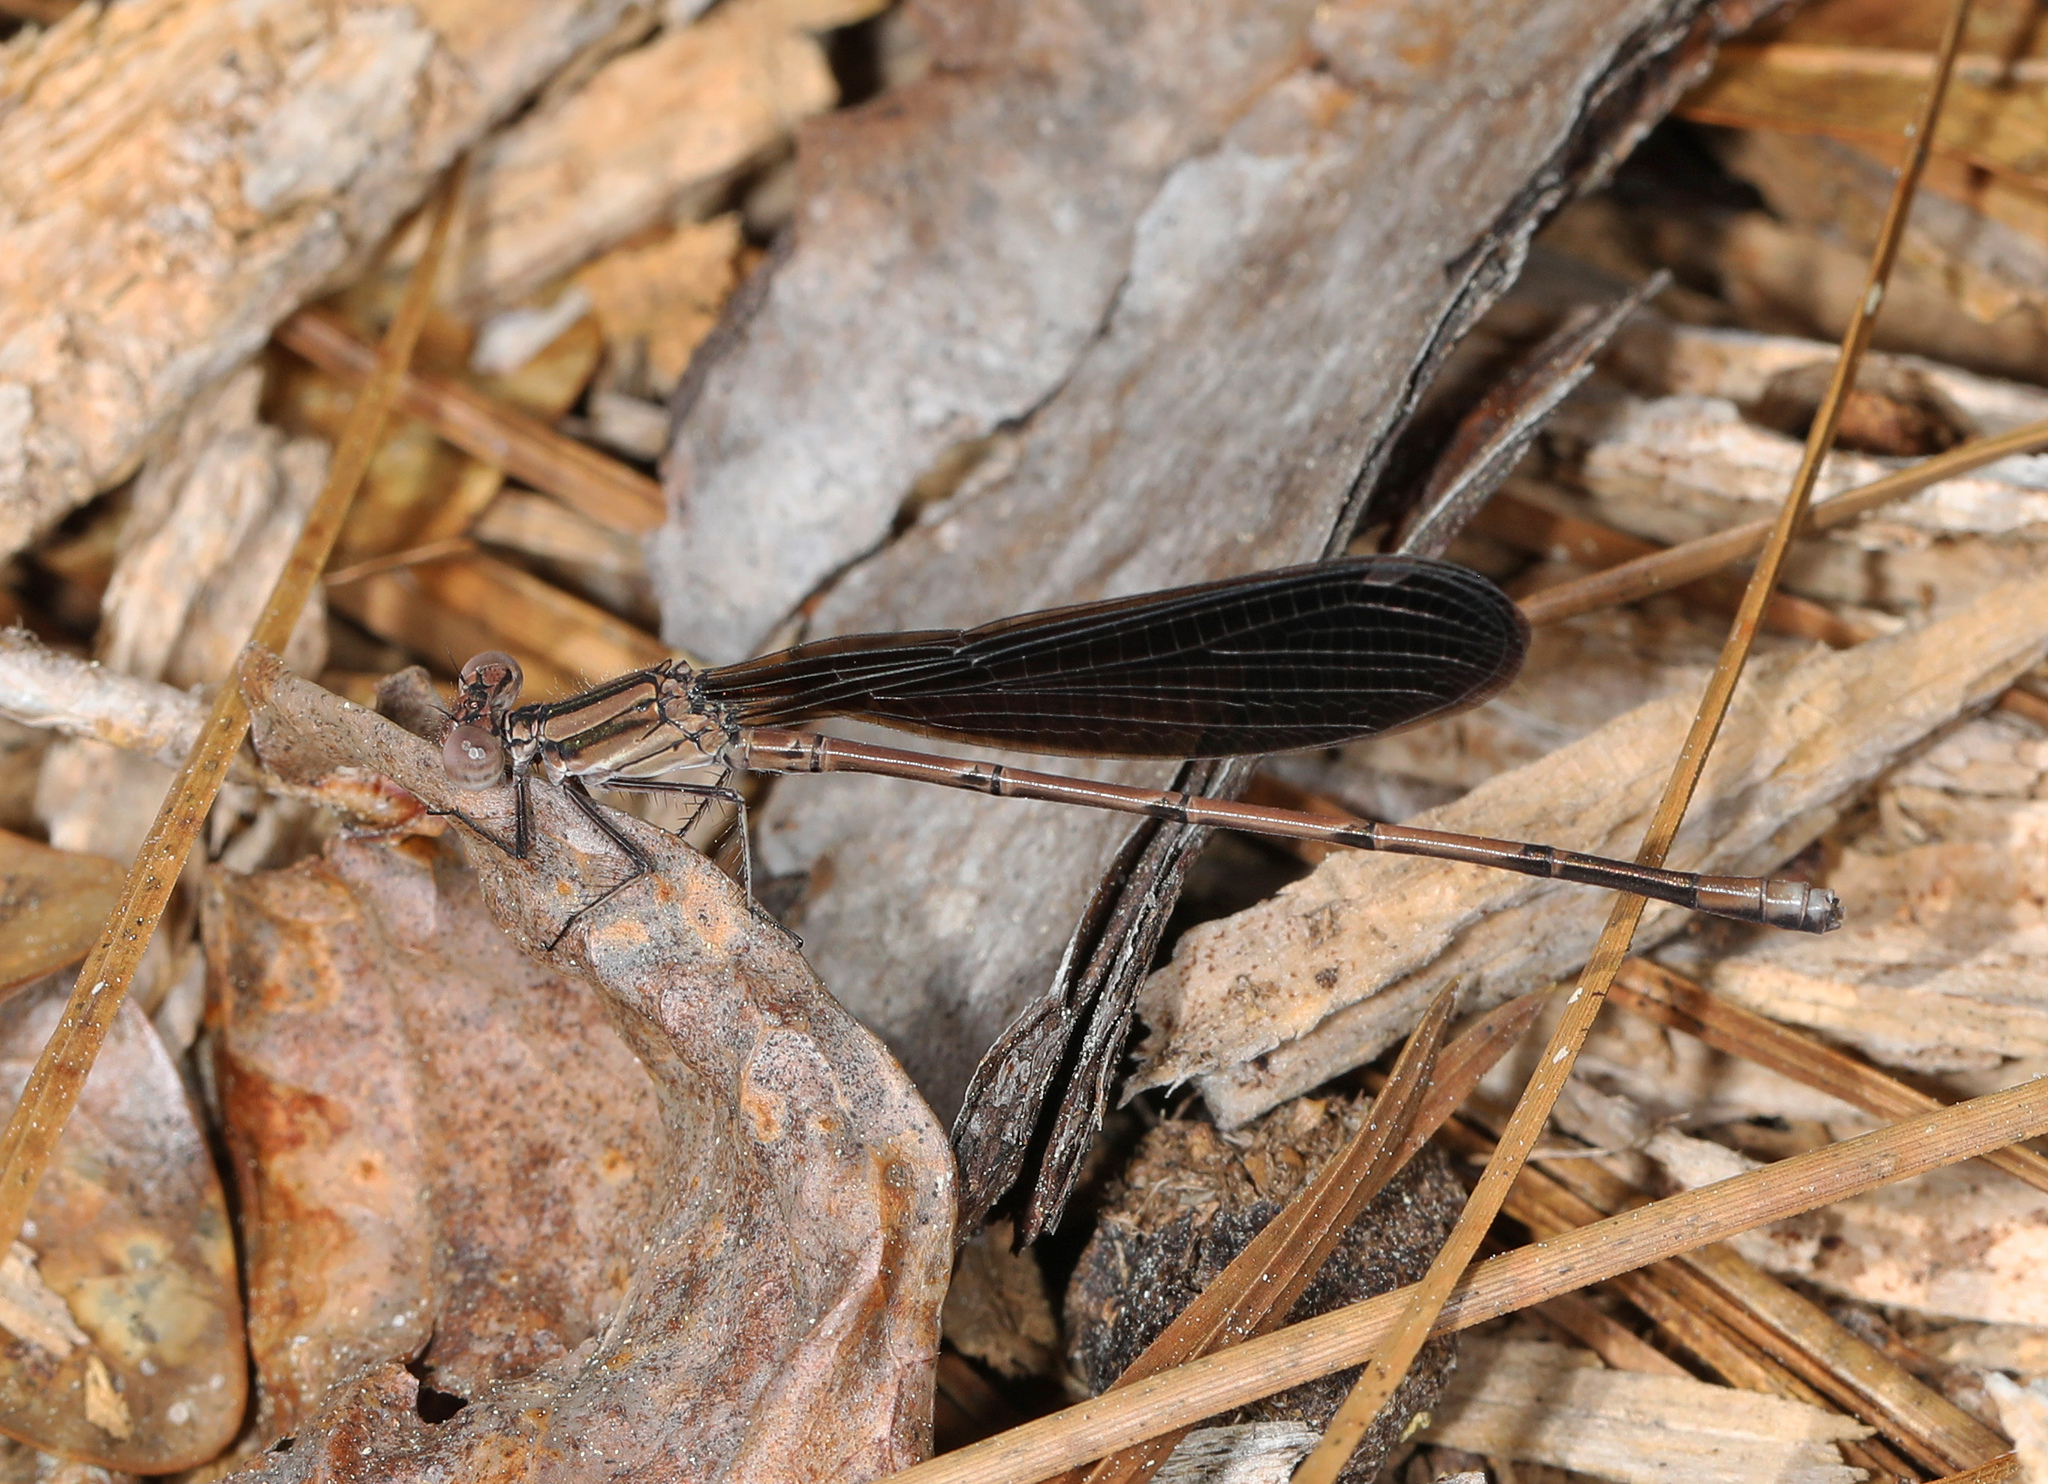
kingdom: Animalia
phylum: Arthropoda
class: Insecta
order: Odonata
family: Coenagrionidae
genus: Argia
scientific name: Argia fumipennis
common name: Variable dancer
